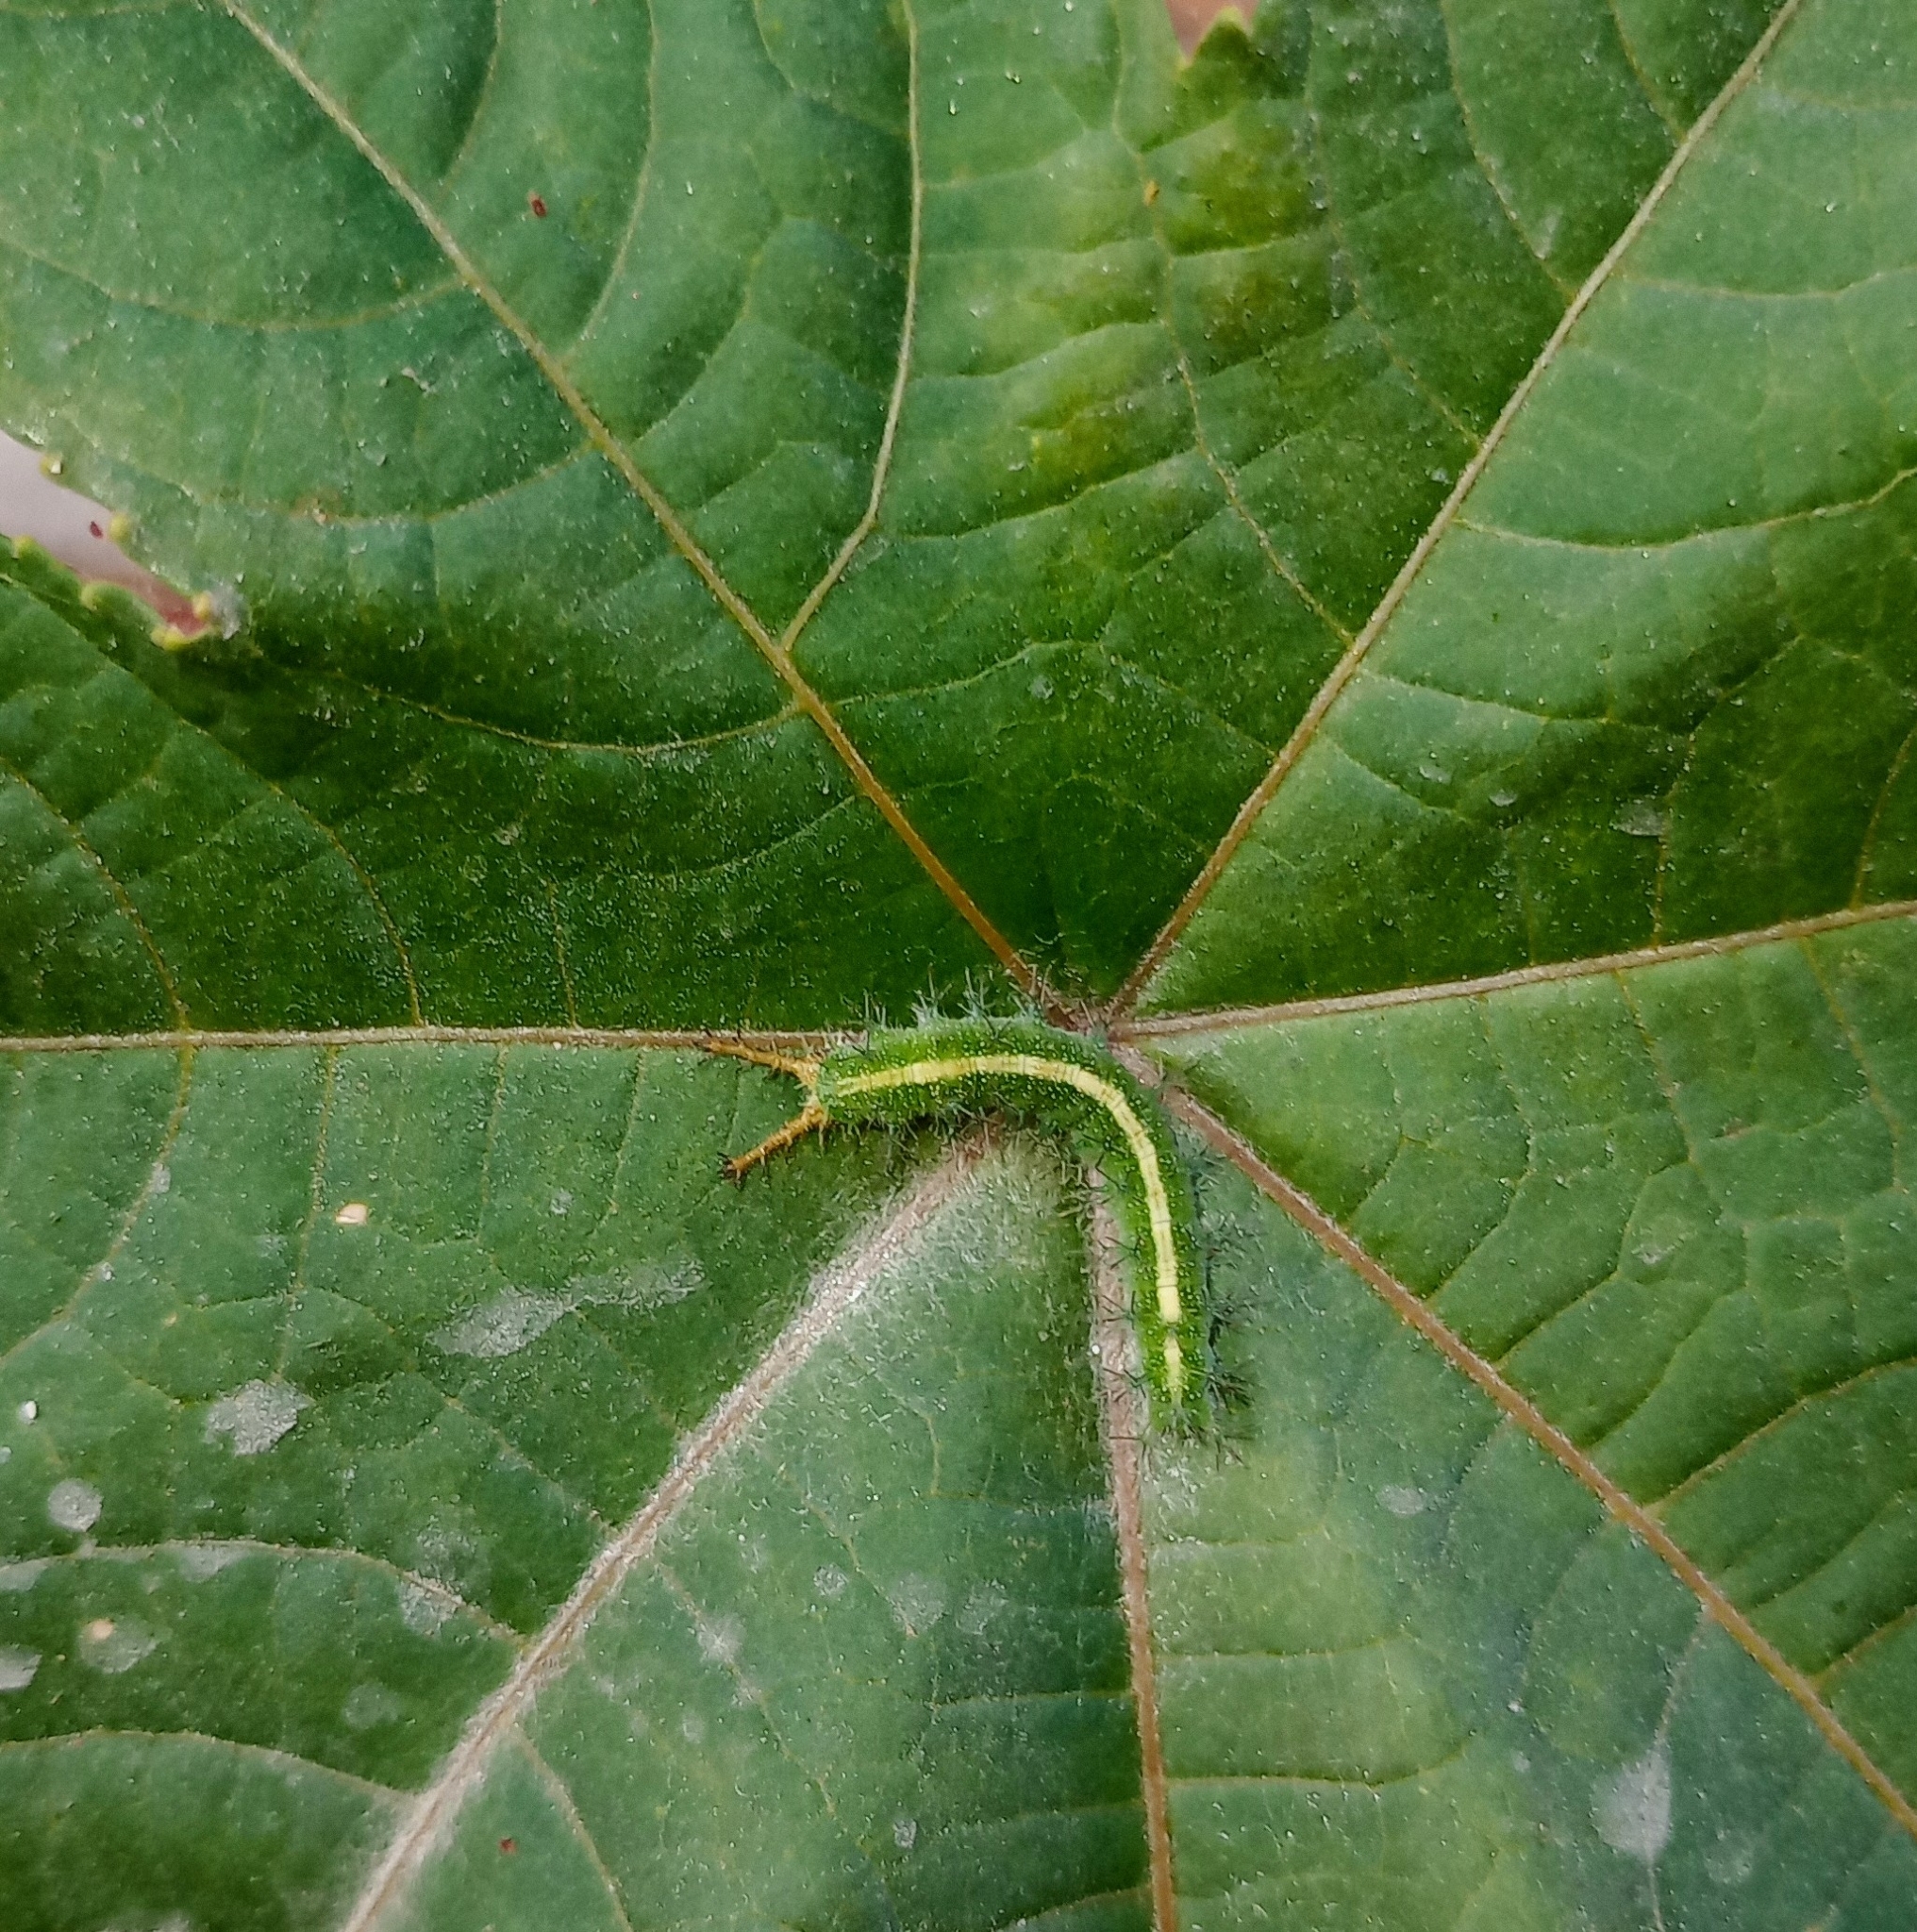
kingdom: Animalia
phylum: Arthropoda
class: Insecta
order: Lepidoptera
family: Nymphalidae
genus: Ariadne
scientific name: Ariadne merione
